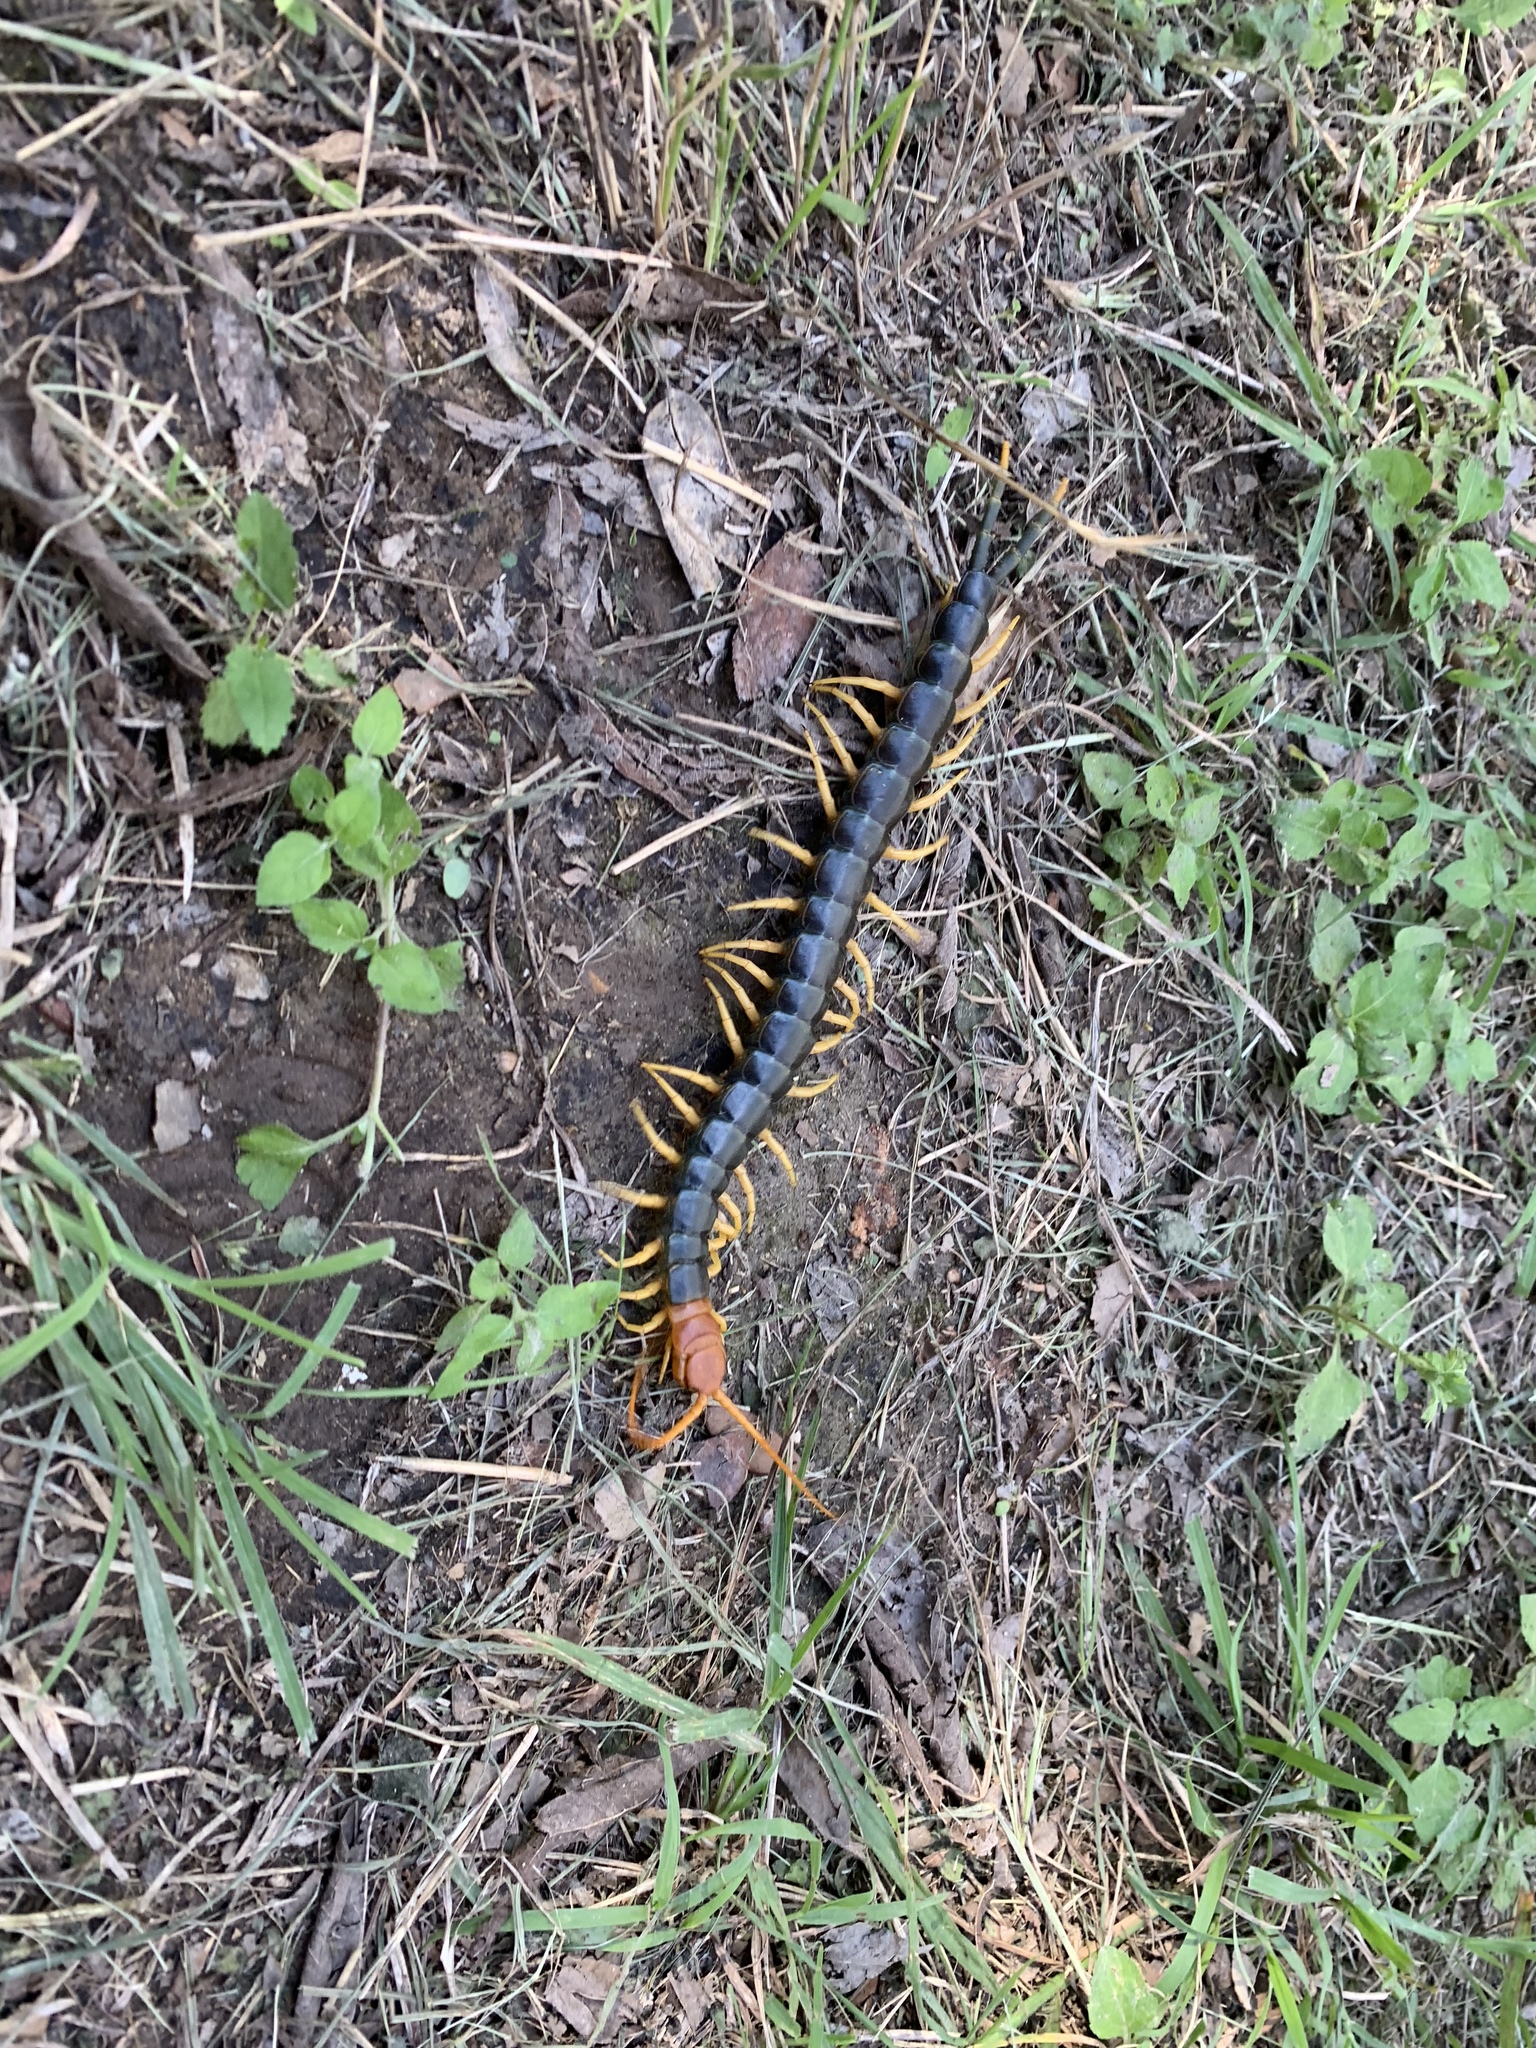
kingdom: Animalia
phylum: Arthropoda
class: Chilopoda
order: Scolopendromorpha
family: Scolopendridae
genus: Scolopendra
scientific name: Scolopendra heros
